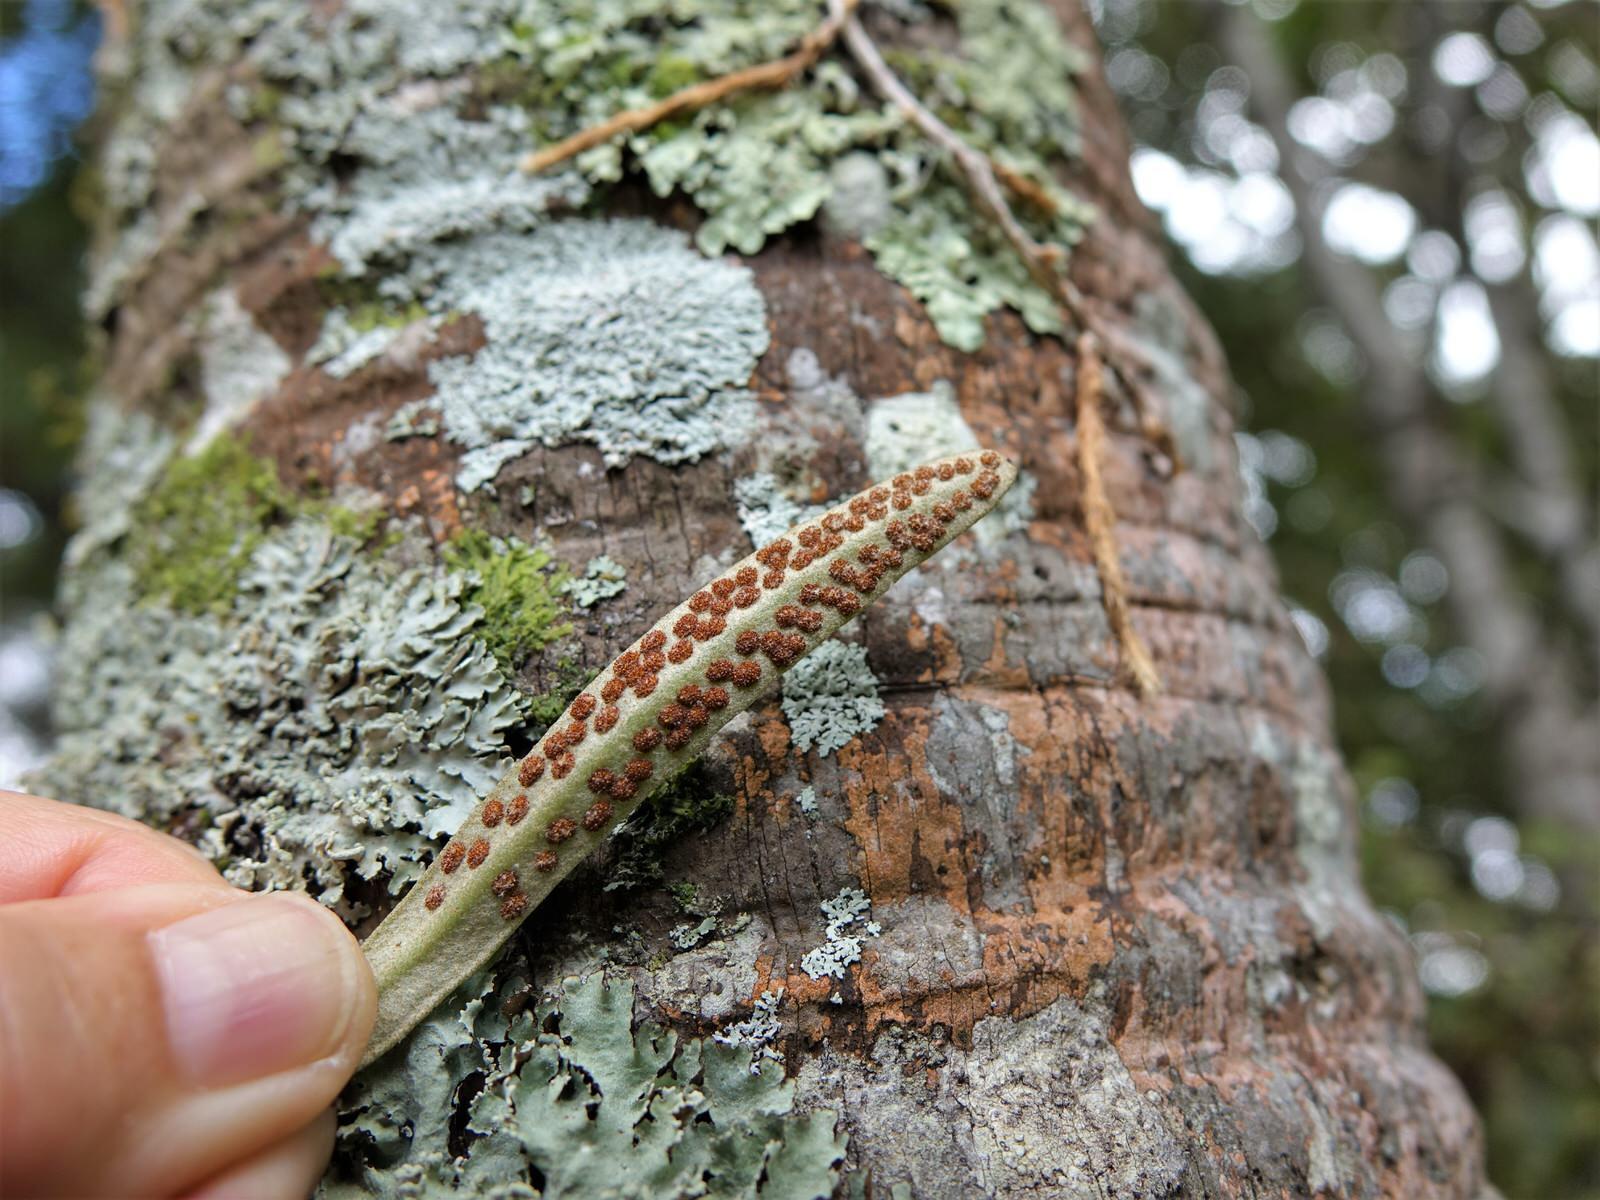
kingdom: Plantae
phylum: Tracheophyta
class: Polypodiopsida
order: Polypodiales
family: Polypodiaceae
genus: Pyrrosia
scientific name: Pyrrosia eleagnifolia
